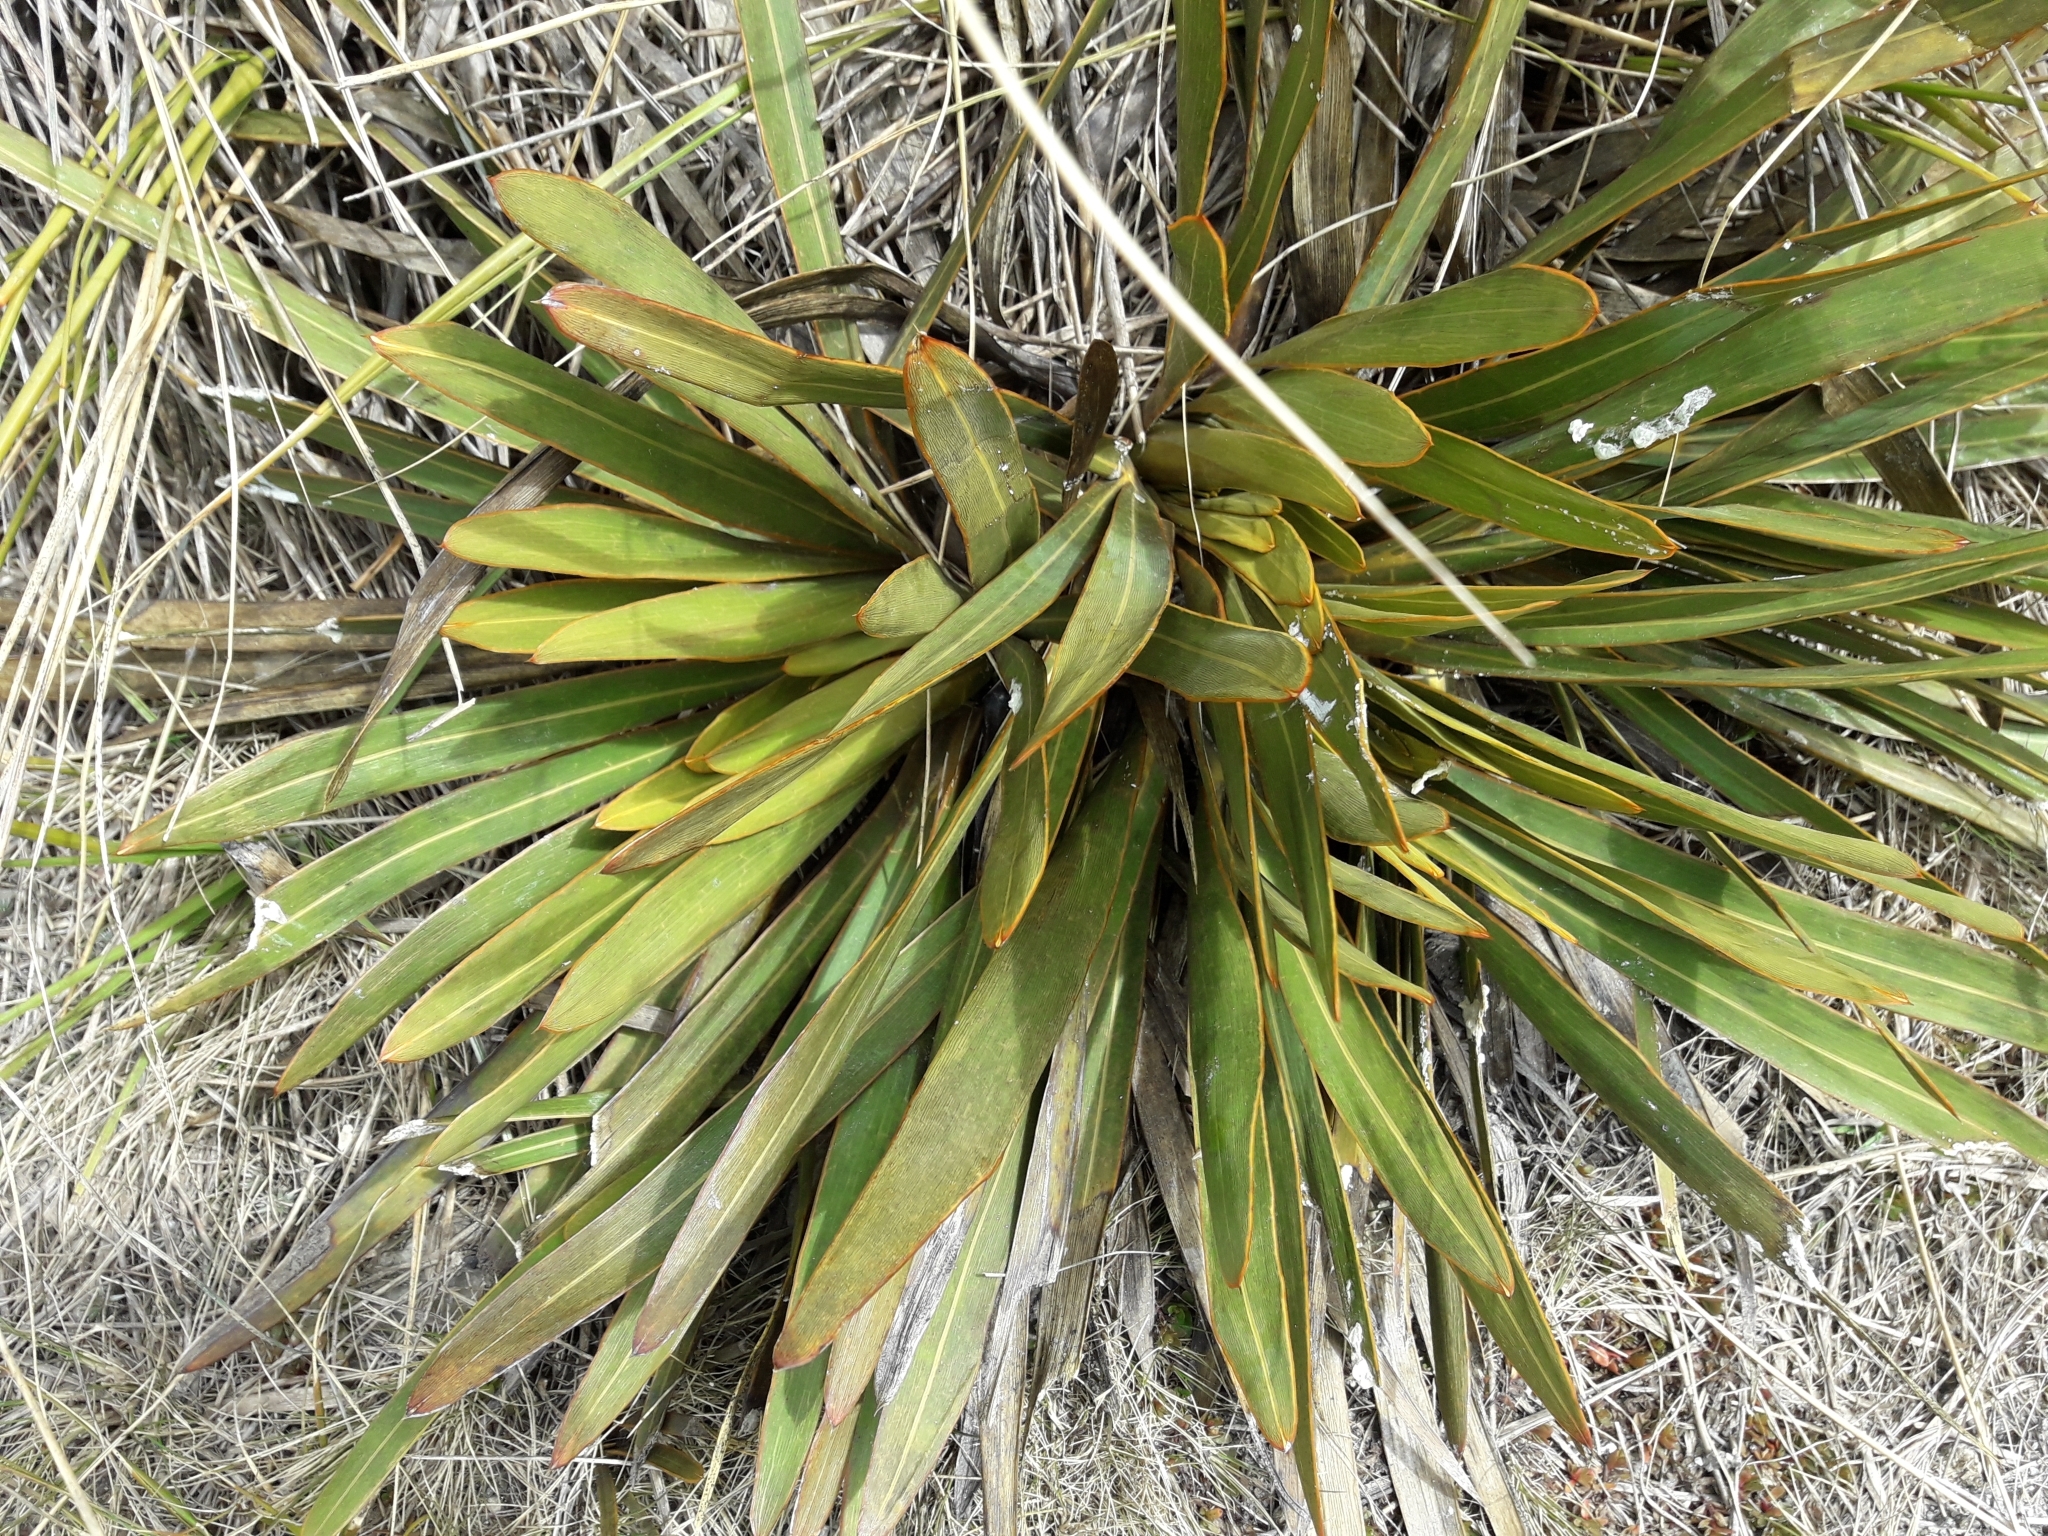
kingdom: Plantae
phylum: Tracheophyta
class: Magnoliopsida
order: Apiales
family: Apiaceae
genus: Aciphylla
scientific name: Aciphylla kirkii
